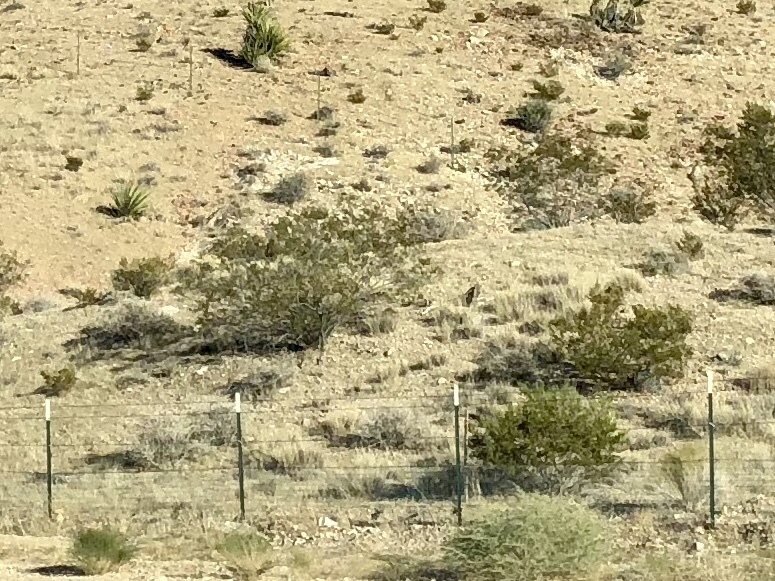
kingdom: Plantae
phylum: Tracheophyta
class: Magnoliopsida
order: Zygophyllales
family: Zygophyllaceae
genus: Larrea
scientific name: Larrea tridentata
